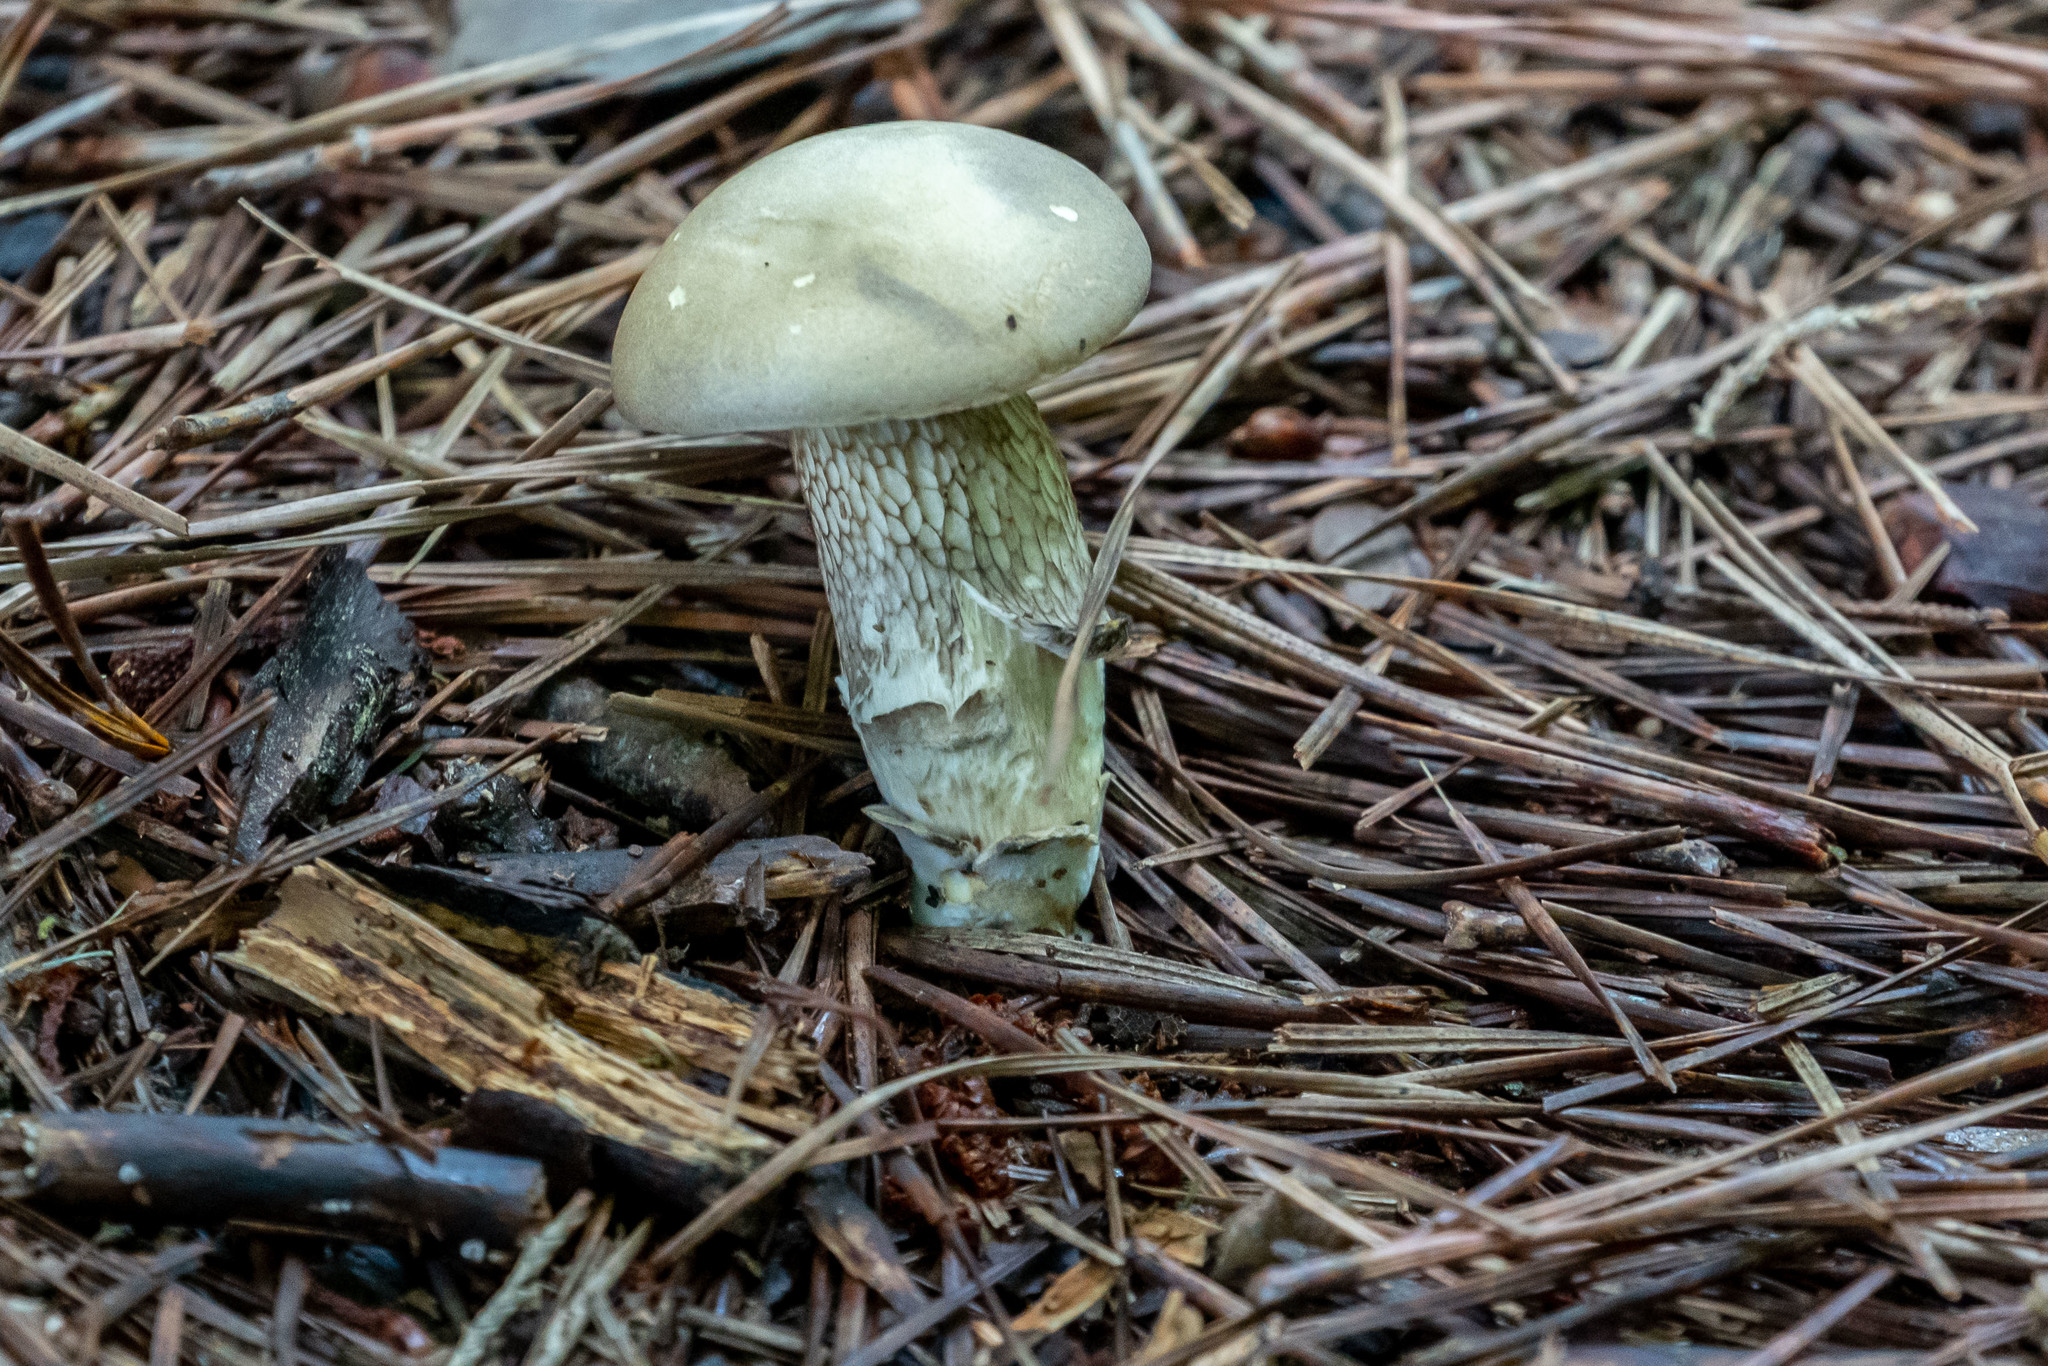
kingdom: Fungi
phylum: Basidiomycota
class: Agaricomycetes
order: Boletales
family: Boletaceae
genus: Retiboletus
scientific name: Retiboletus griseus
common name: Grey bolete
